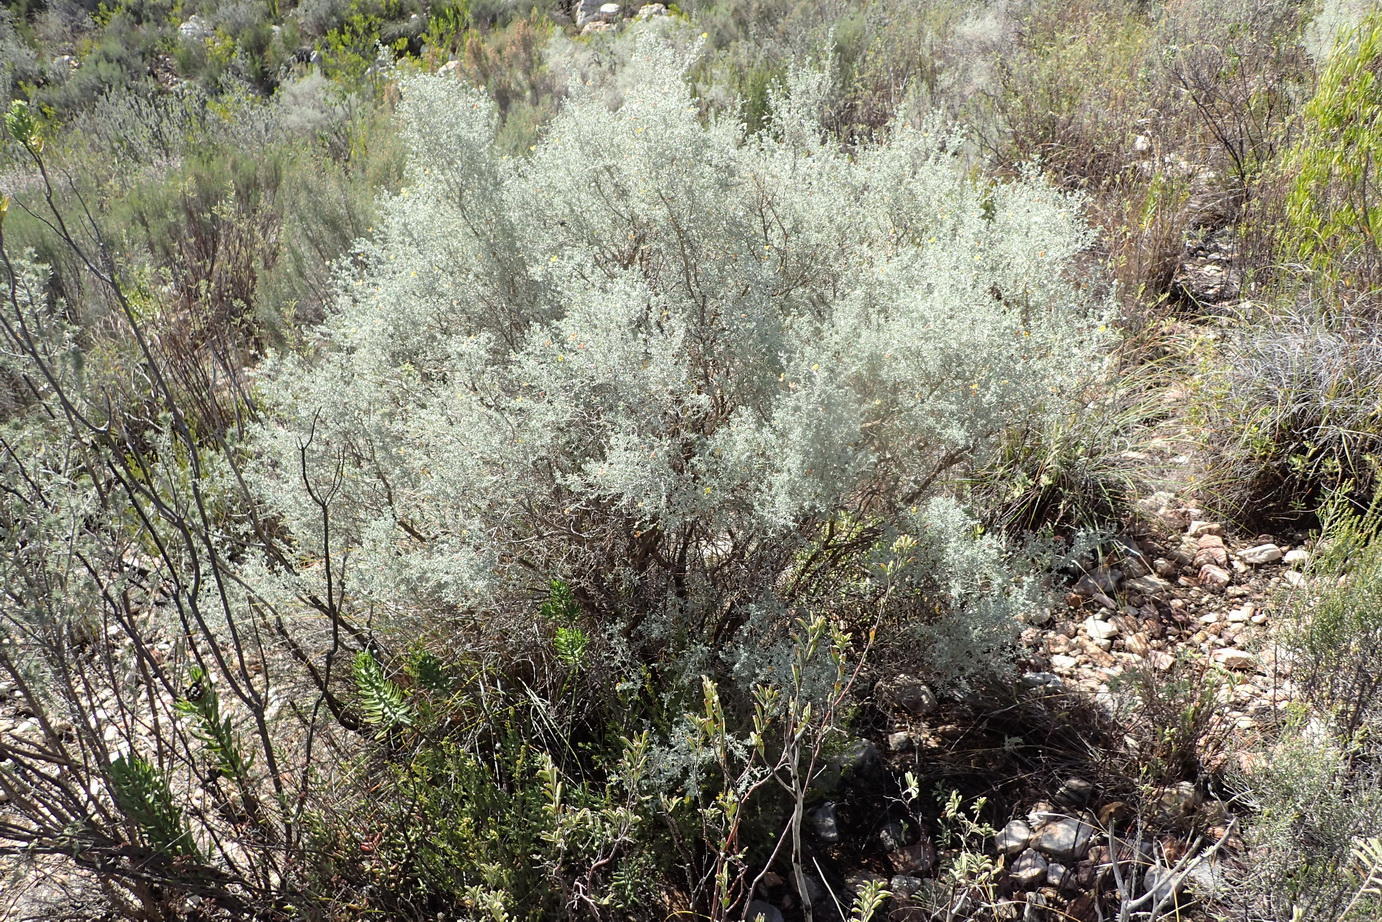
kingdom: Plantae
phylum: Tracheophyta
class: Magnoliopsida
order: Fabales
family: Fabaceae
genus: Aspalathus
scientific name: Aspalathus pedunculata
